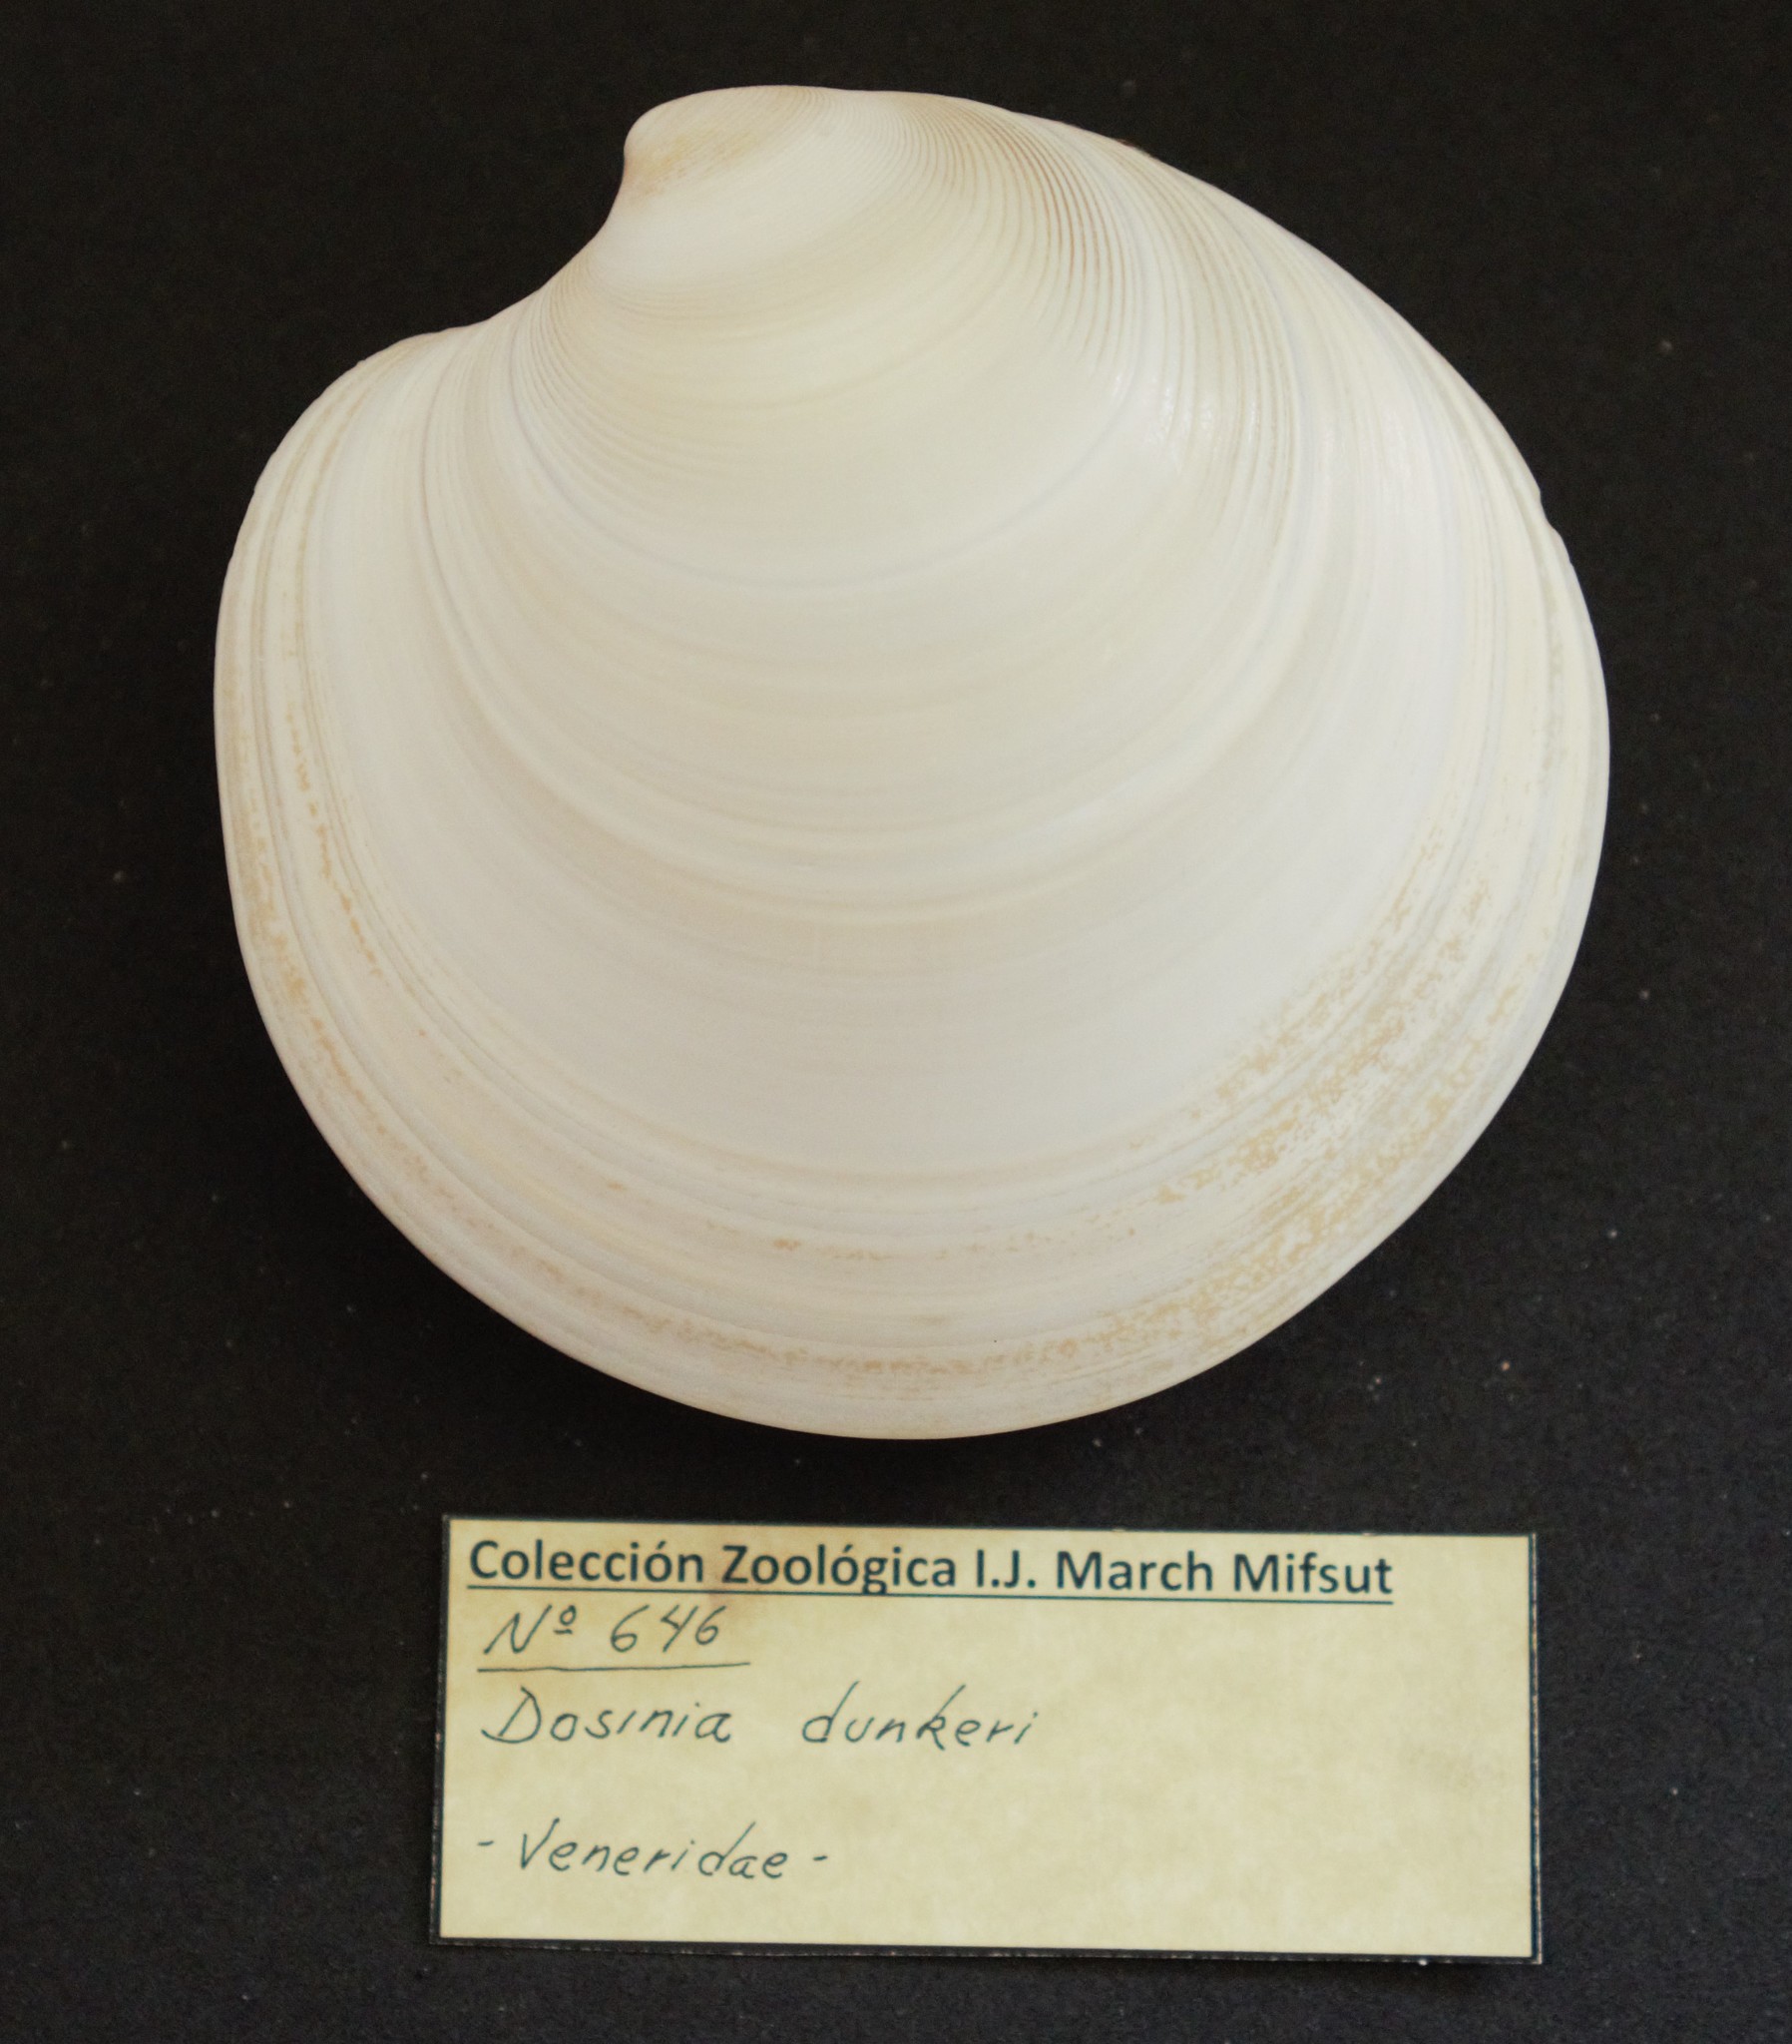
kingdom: Animalia
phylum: Mollusca
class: Bivalvia
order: Venerida
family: Veneridae
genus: Dosinia
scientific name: Dosinia dunkeri
